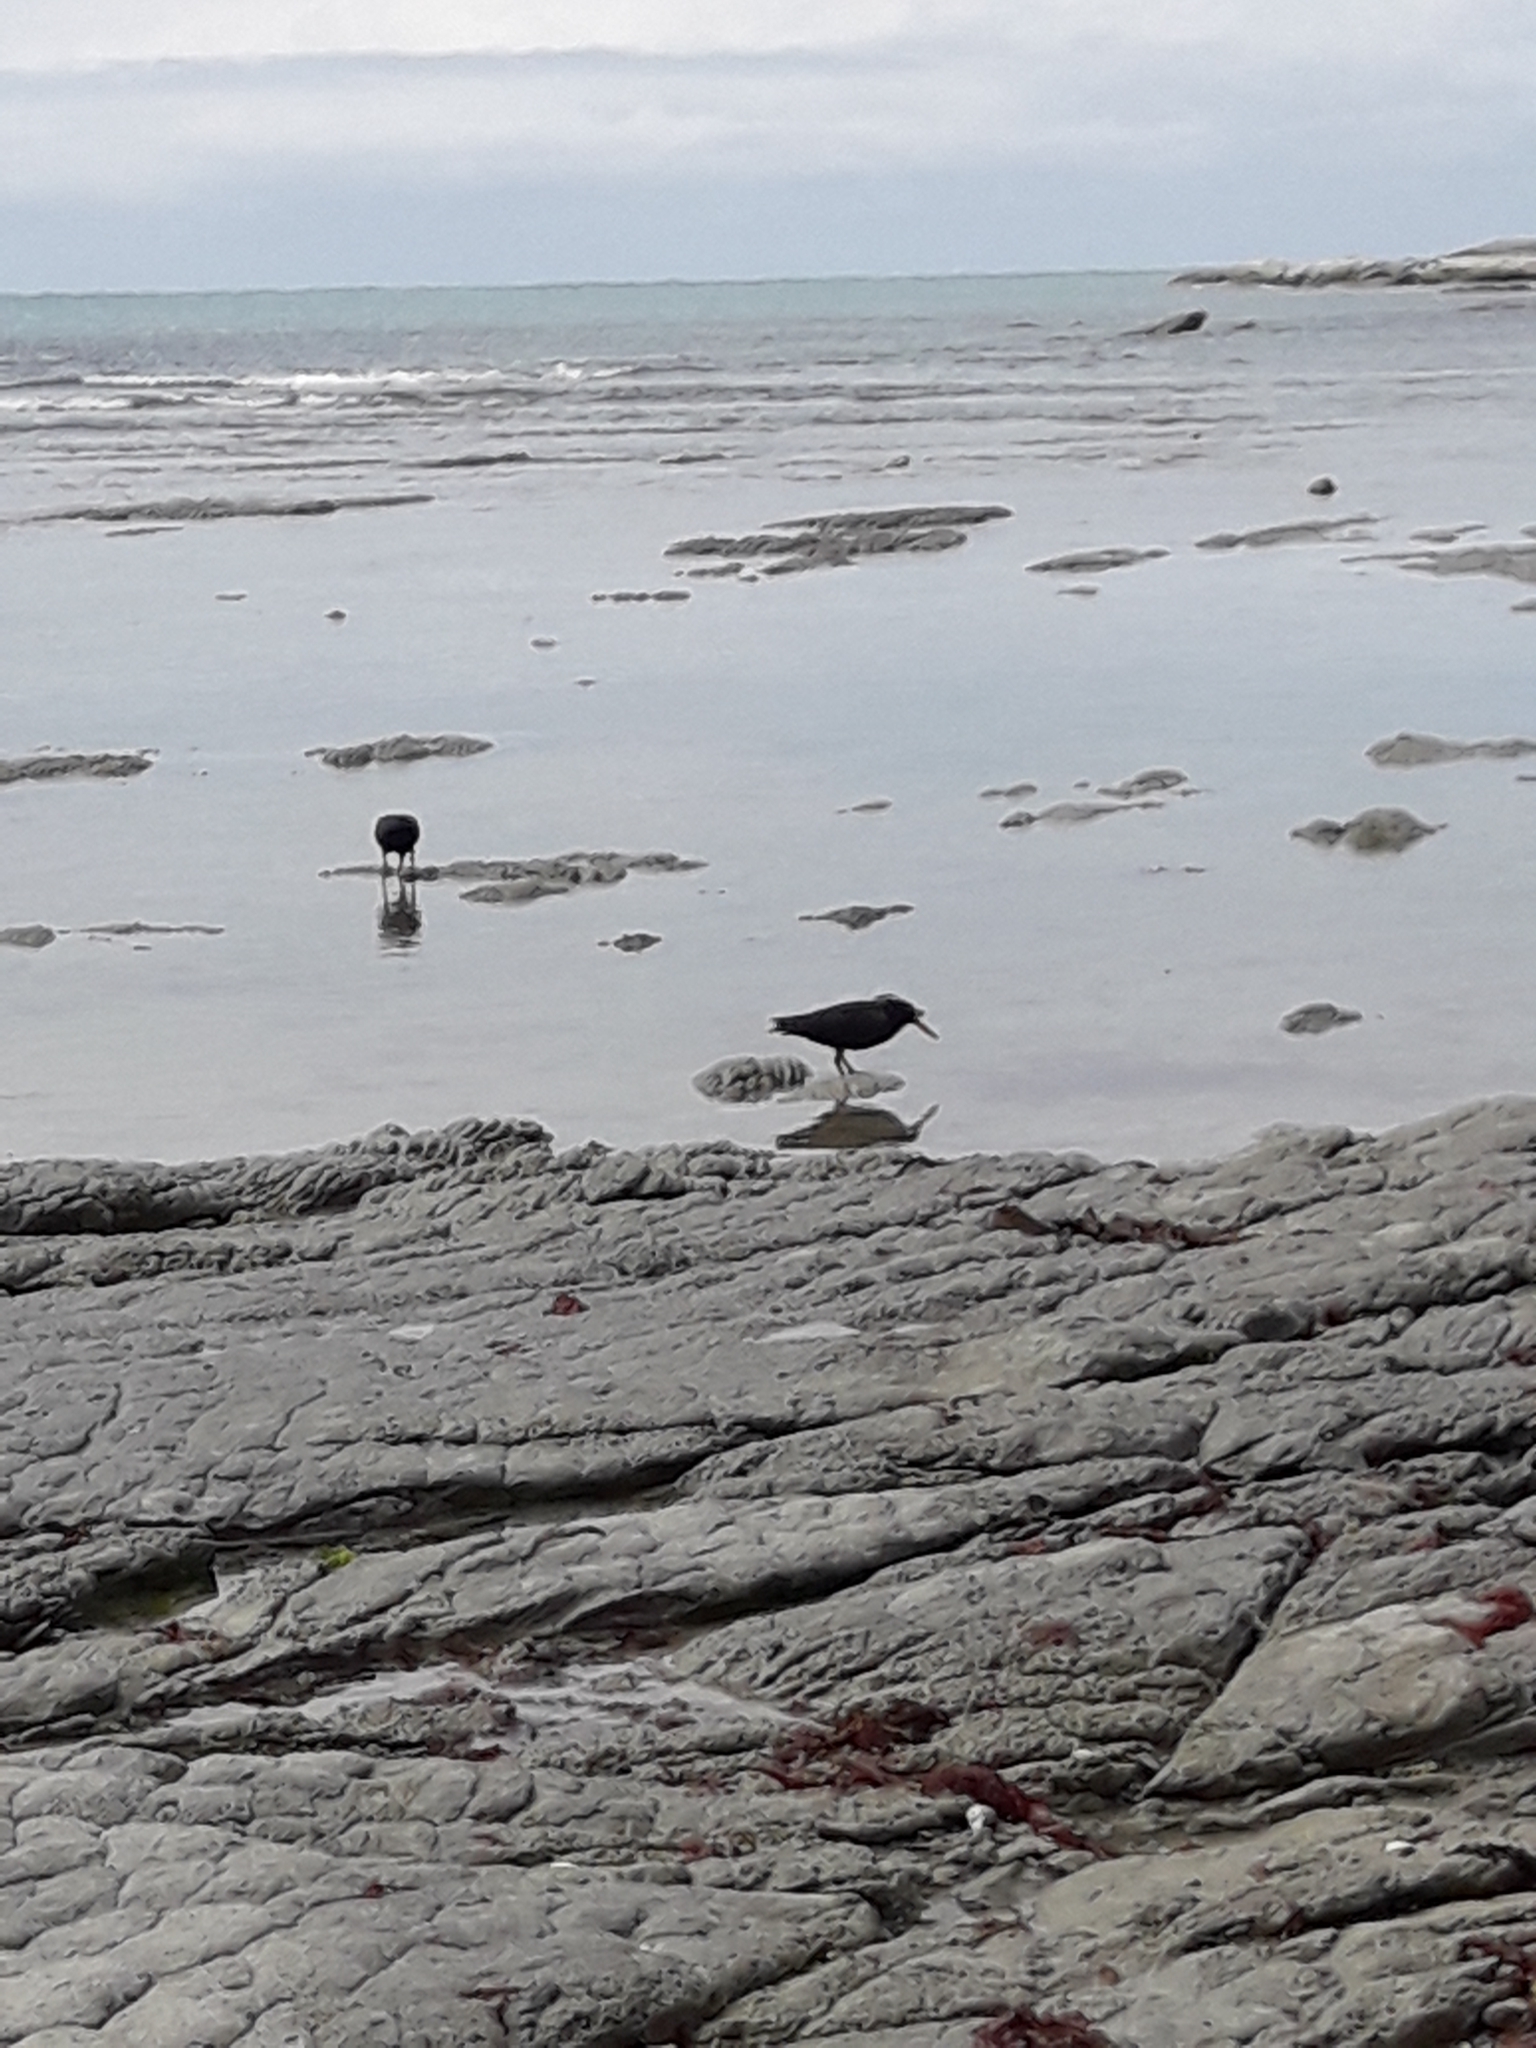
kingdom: Animalia
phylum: Chordata
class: Aves
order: Charadriiformes
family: Haematopodidae
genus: Haematopus
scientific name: Haematopus unicolor
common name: Variable oystercatcher
